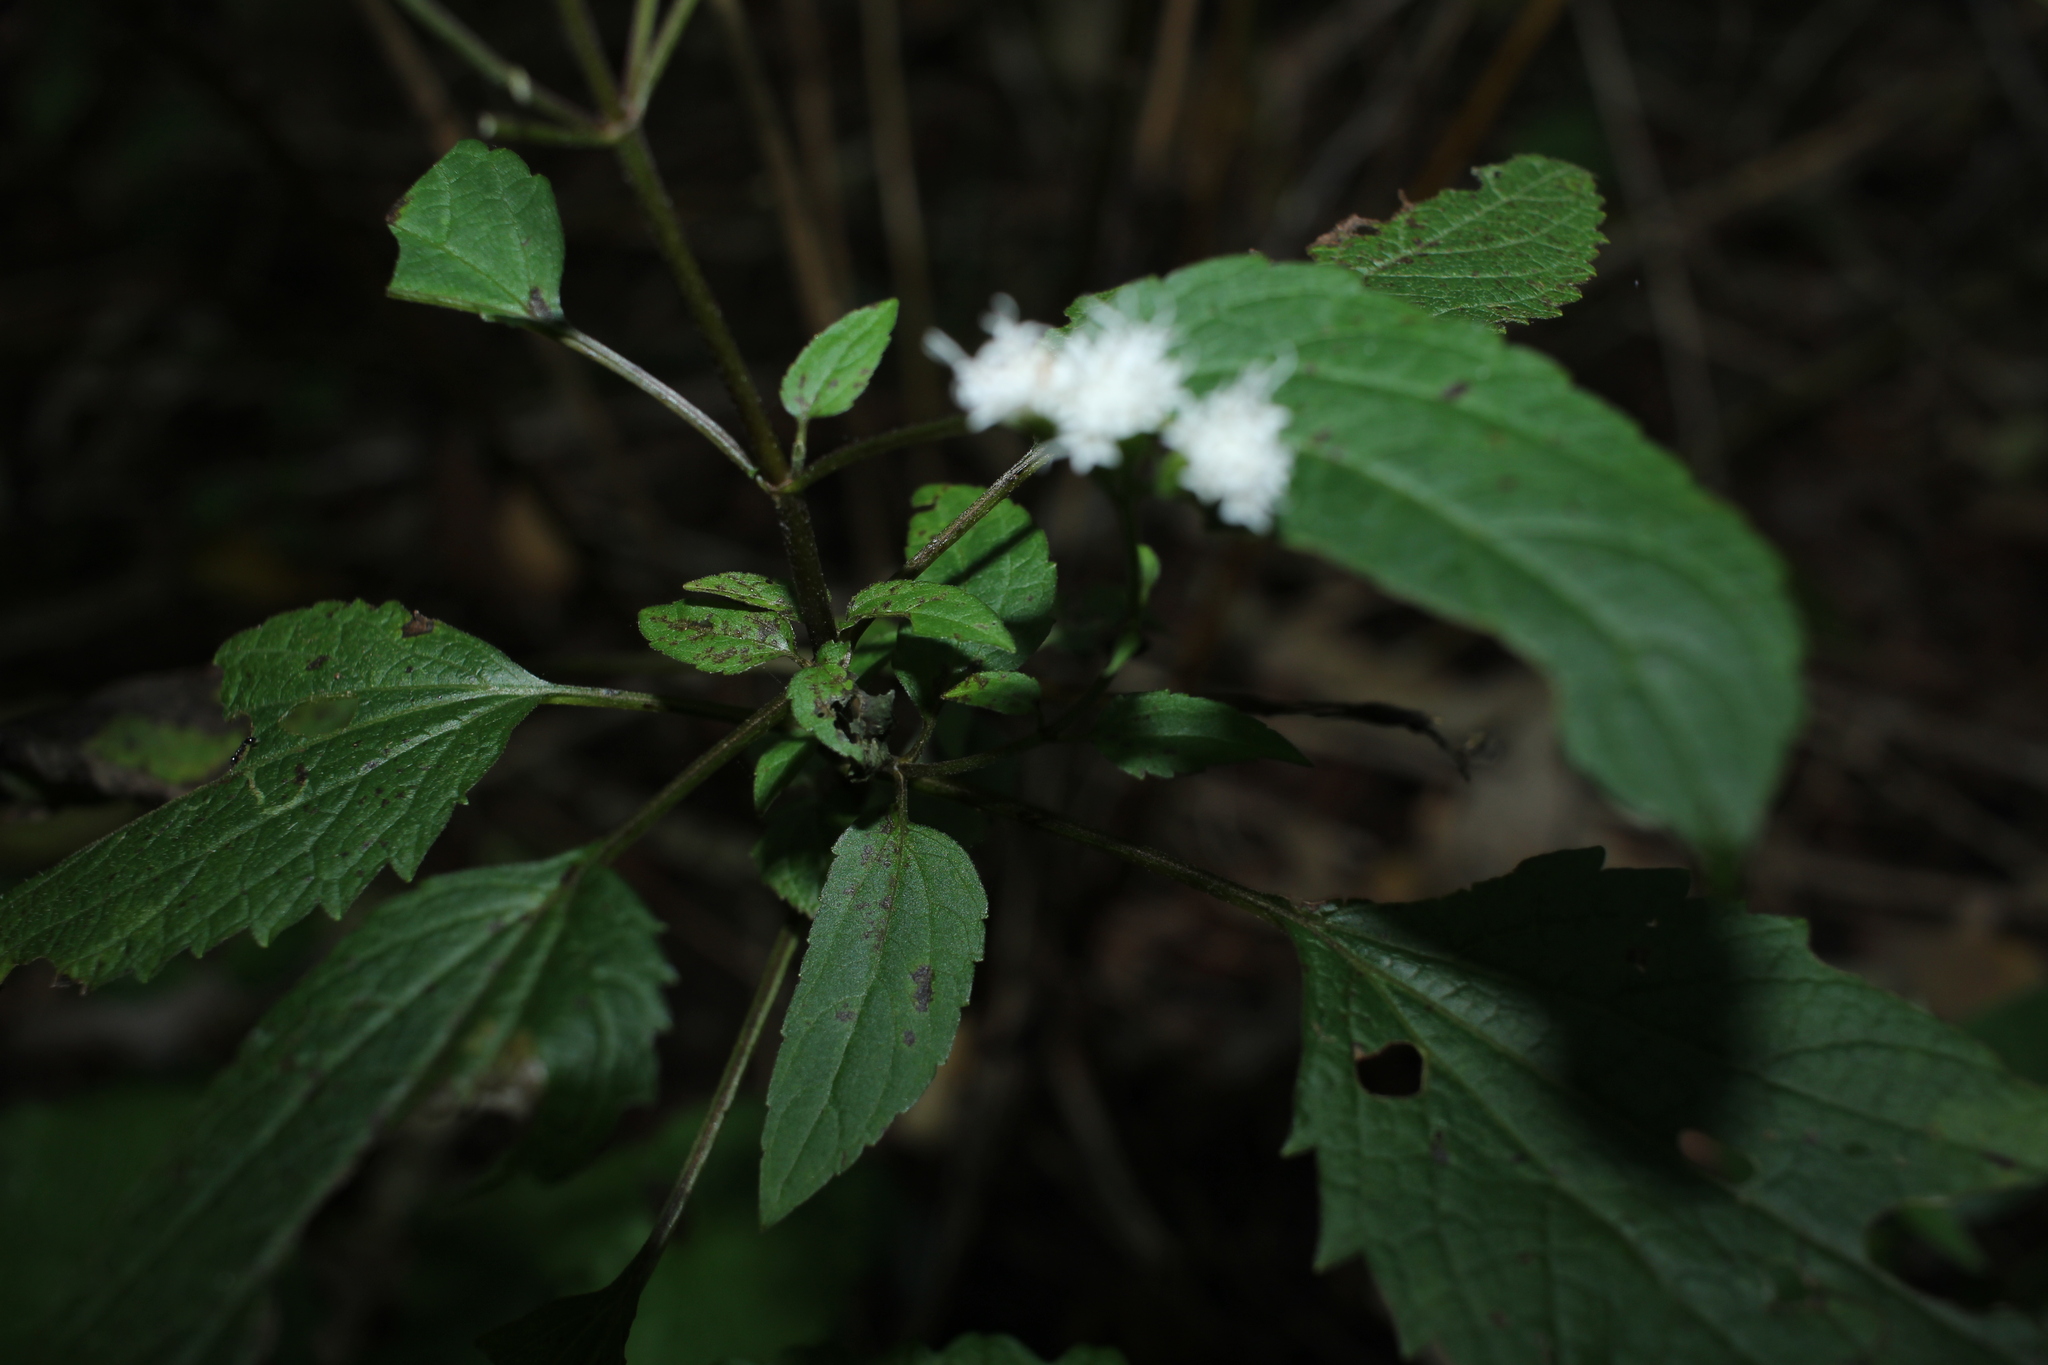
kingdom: Plantae
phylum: Tracheophyta
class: Magnoliopsida
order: Asterales
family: Asteraceae
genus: Ageratina
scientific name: Ageratina altissima
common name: White snakeroot
